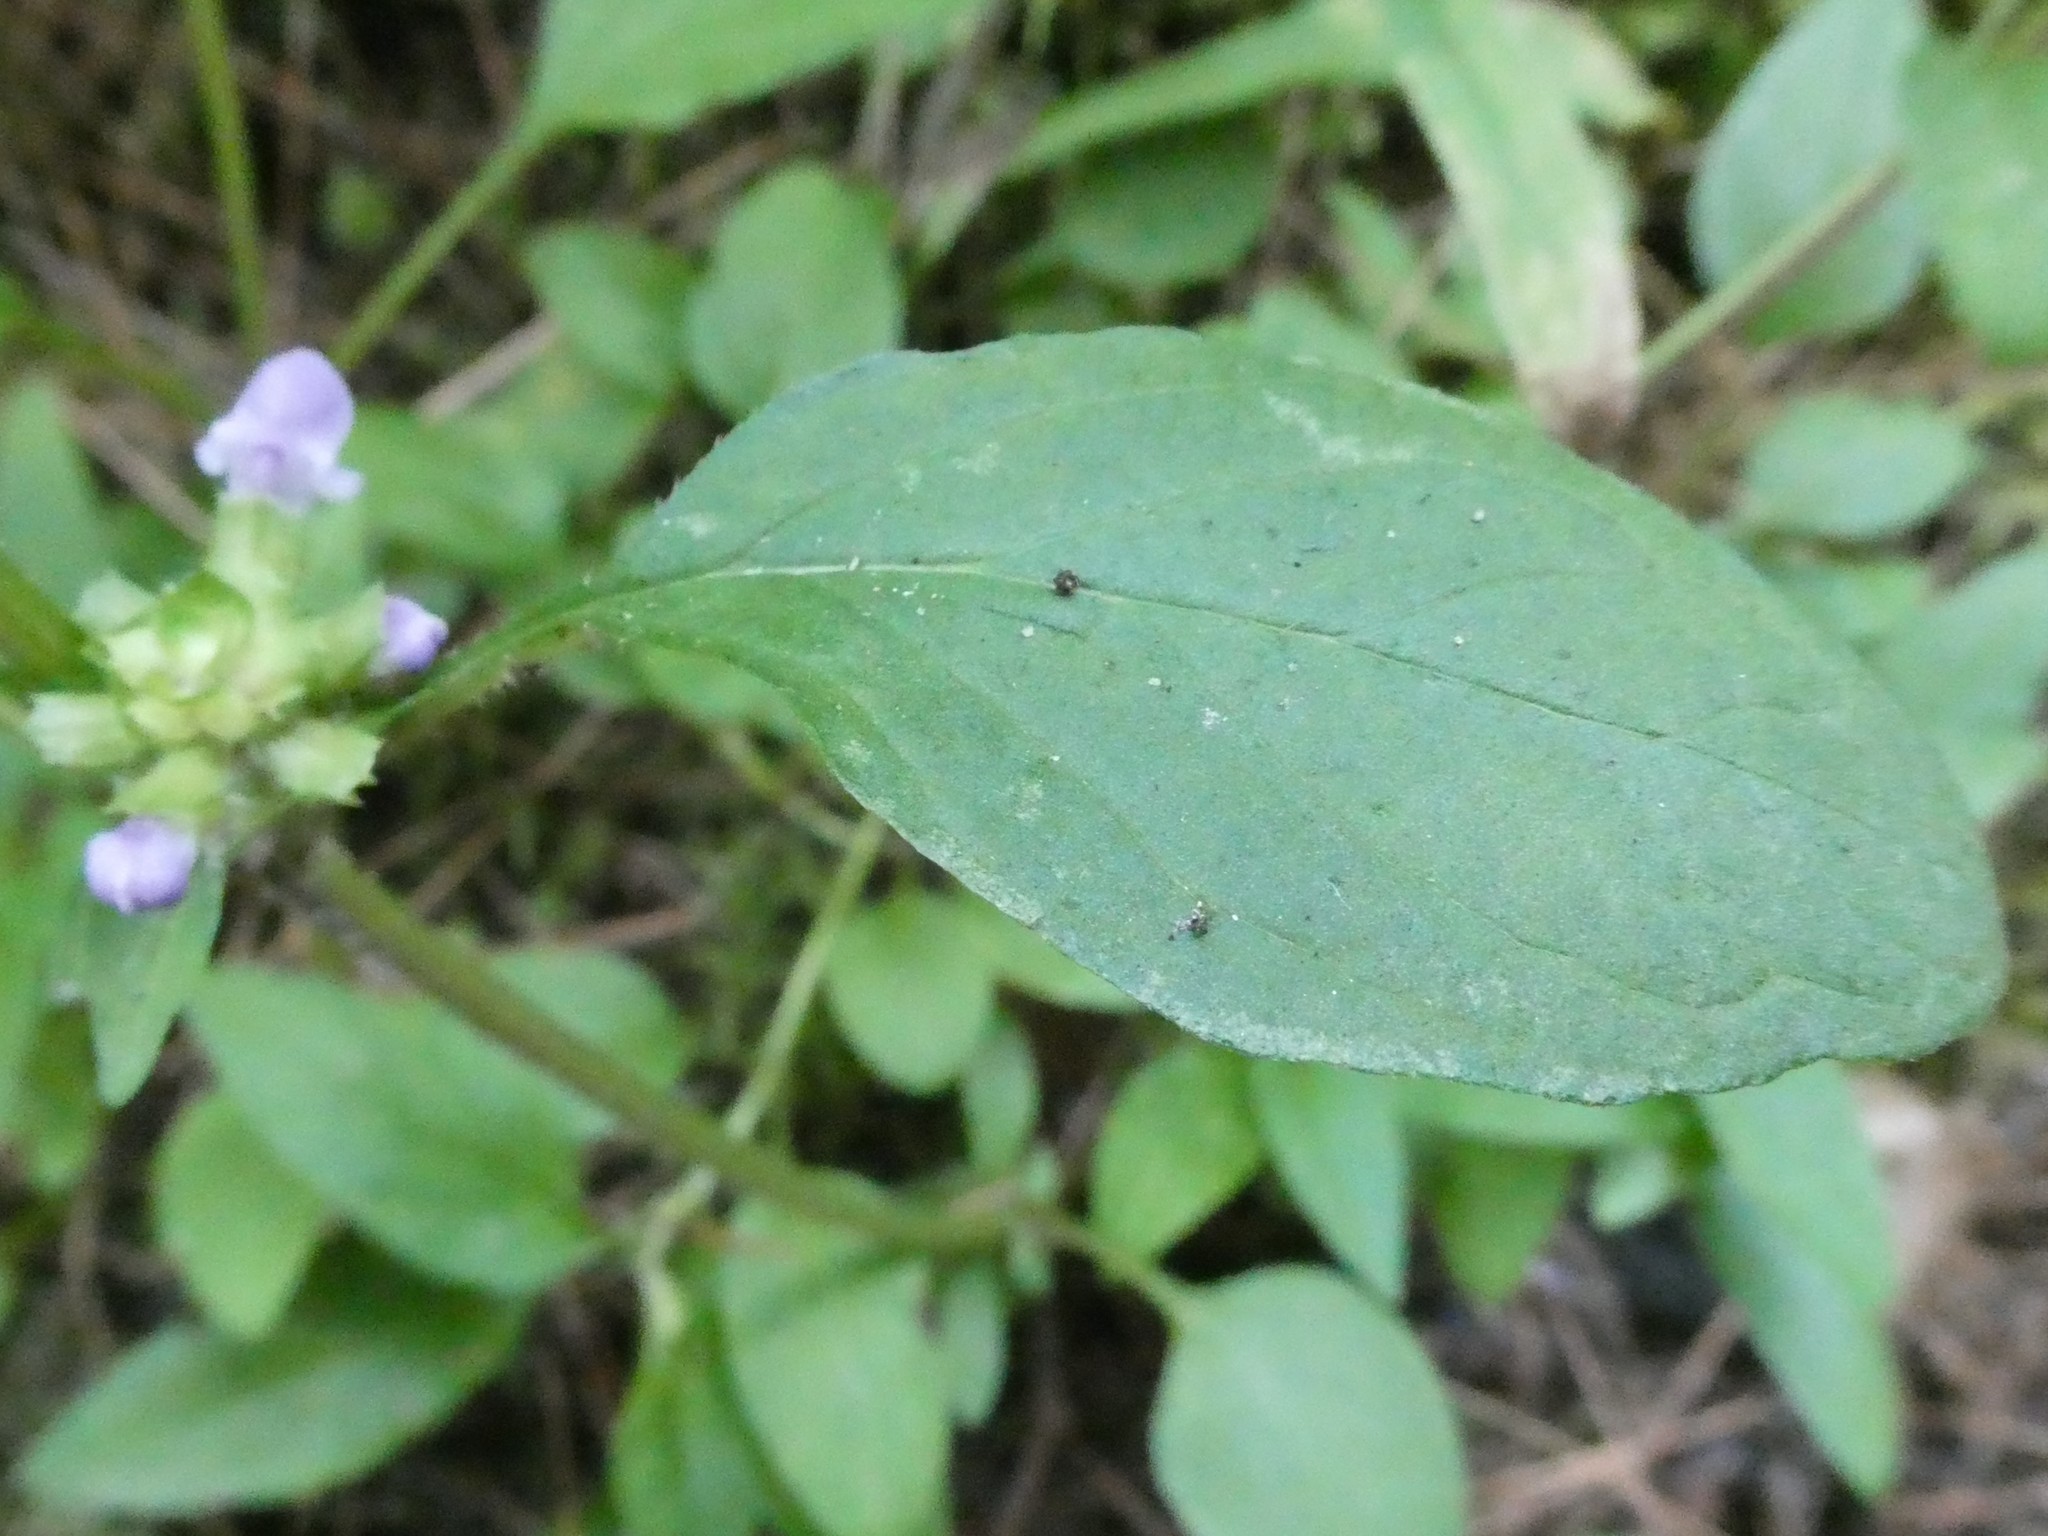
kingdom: Plantae
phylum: Tracheophyta
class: Magnoliopsida
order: Lamiales
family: Lamiaceae
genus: Prunella
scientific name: Prunella vulgaris
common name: Heal-all
